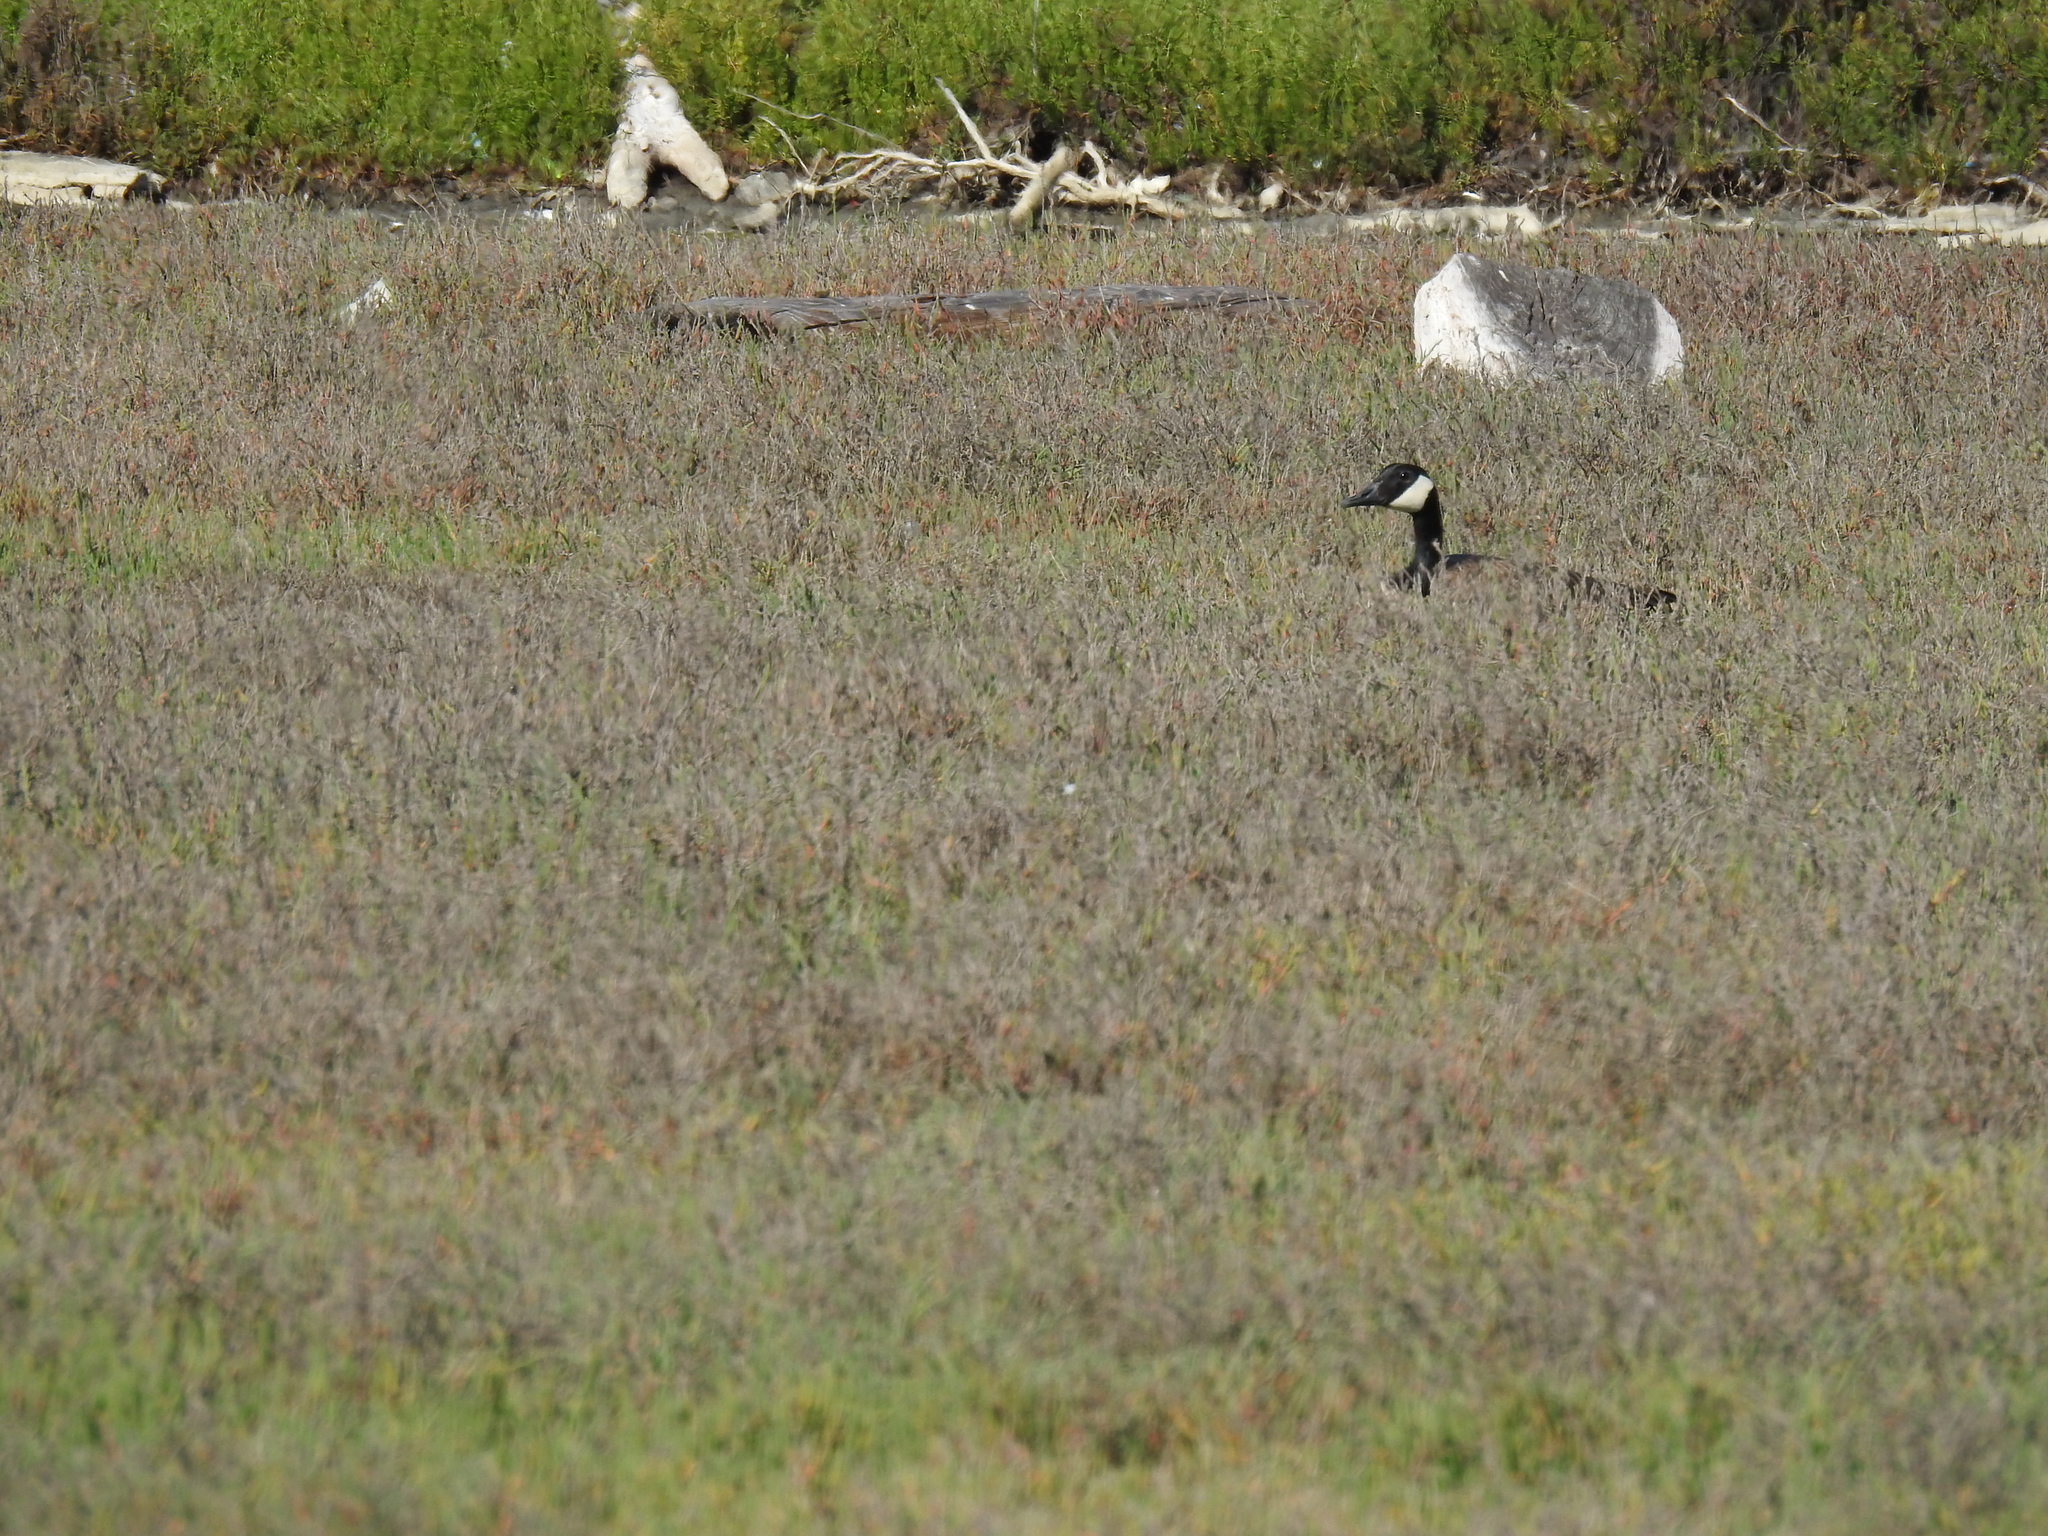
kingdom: Animalia
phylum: Chordata
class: Aves
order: Anseriformes
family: Anatidae
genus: Branta
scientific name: Branta canadensis
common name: Canada goose
